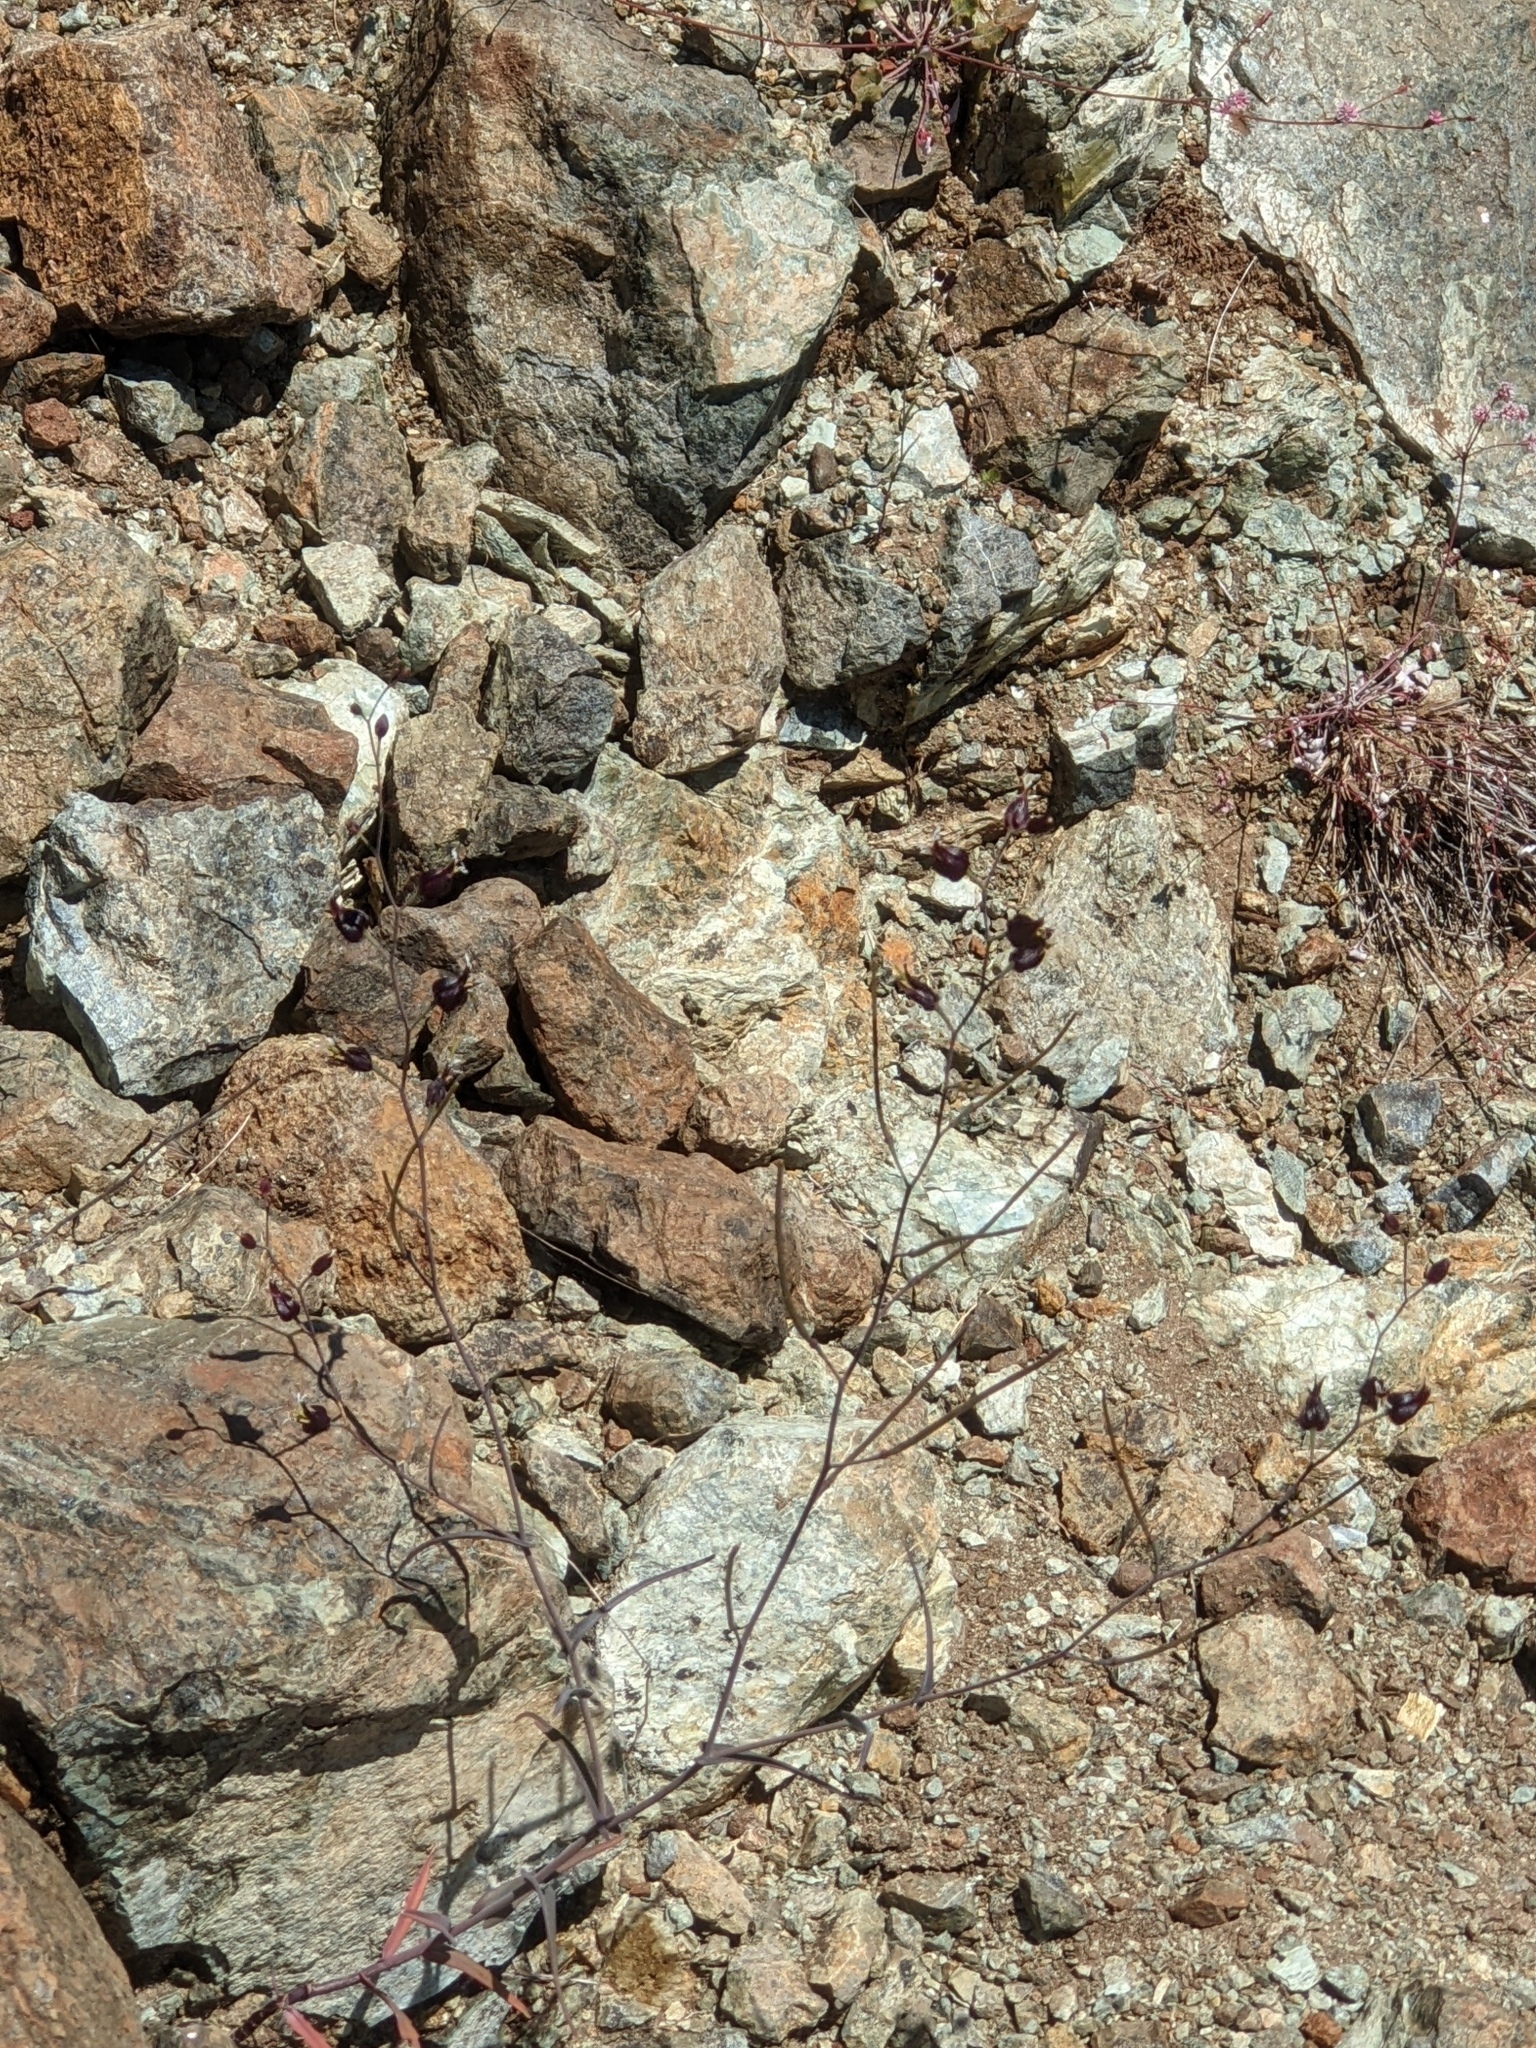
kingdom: Plantae
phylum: Tracheophyta
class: Magnoliopsida
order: Brassicales
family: Brassicaceae
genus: Streptanthus
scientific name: Streptanthus glandulosus
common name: Jewel-flower
